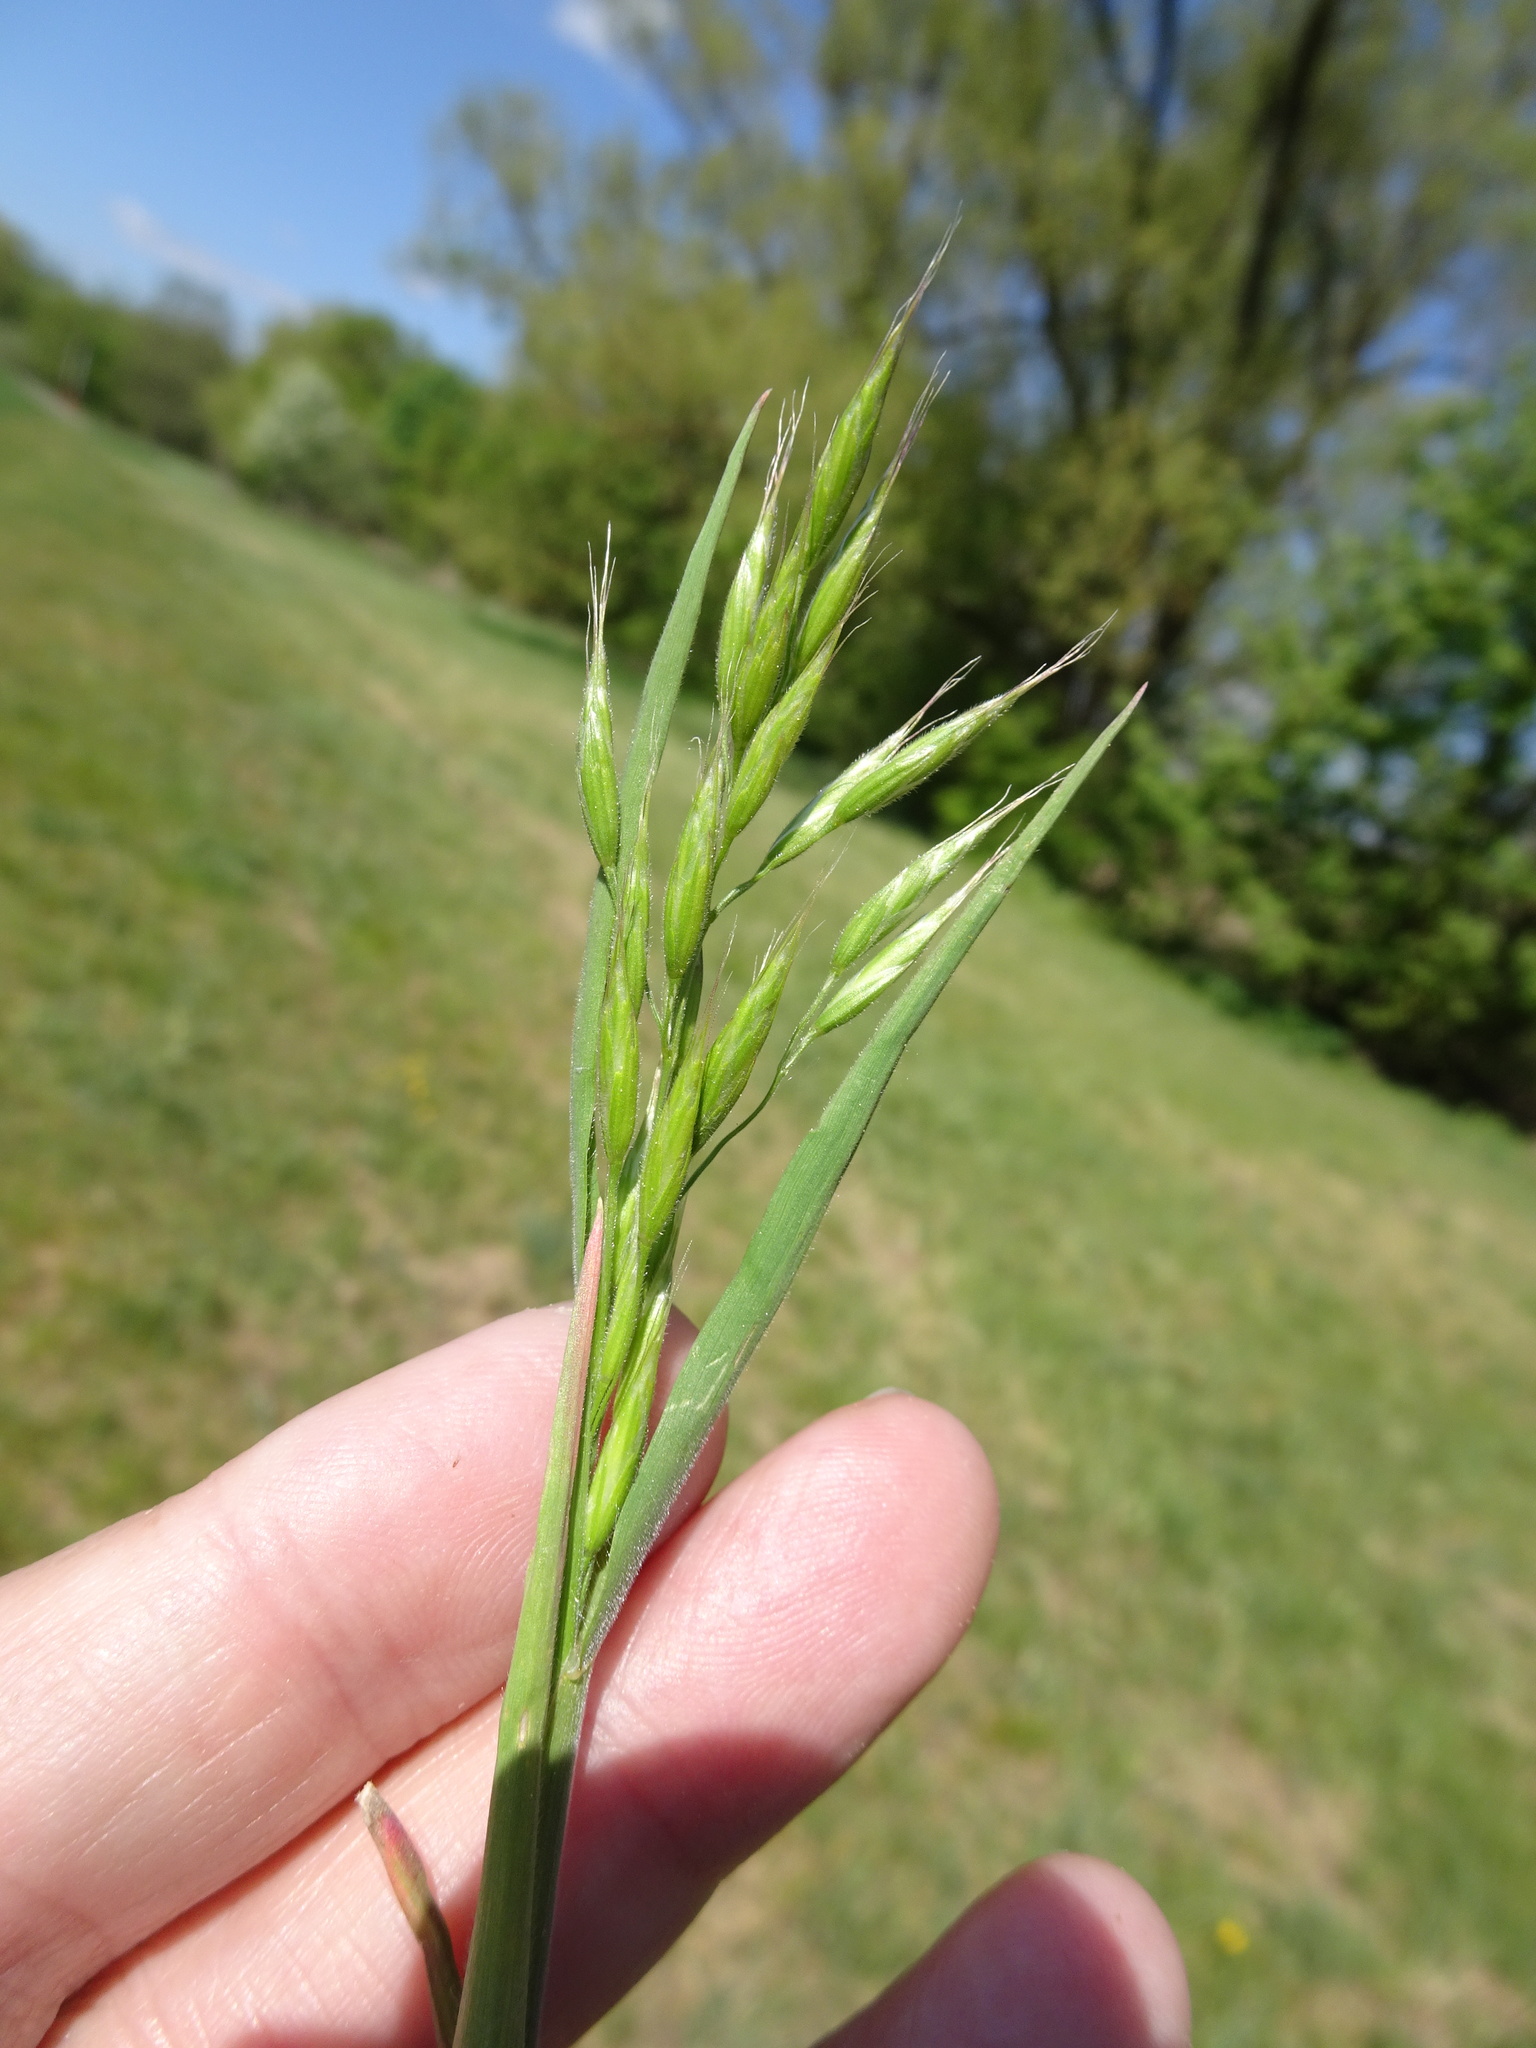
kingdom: Plantae
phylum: Tracheophyta
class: Liliopsida
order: Poales
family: Poaceae
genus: Bromus
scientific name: Bromus hordeaceus
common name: Soft brome
